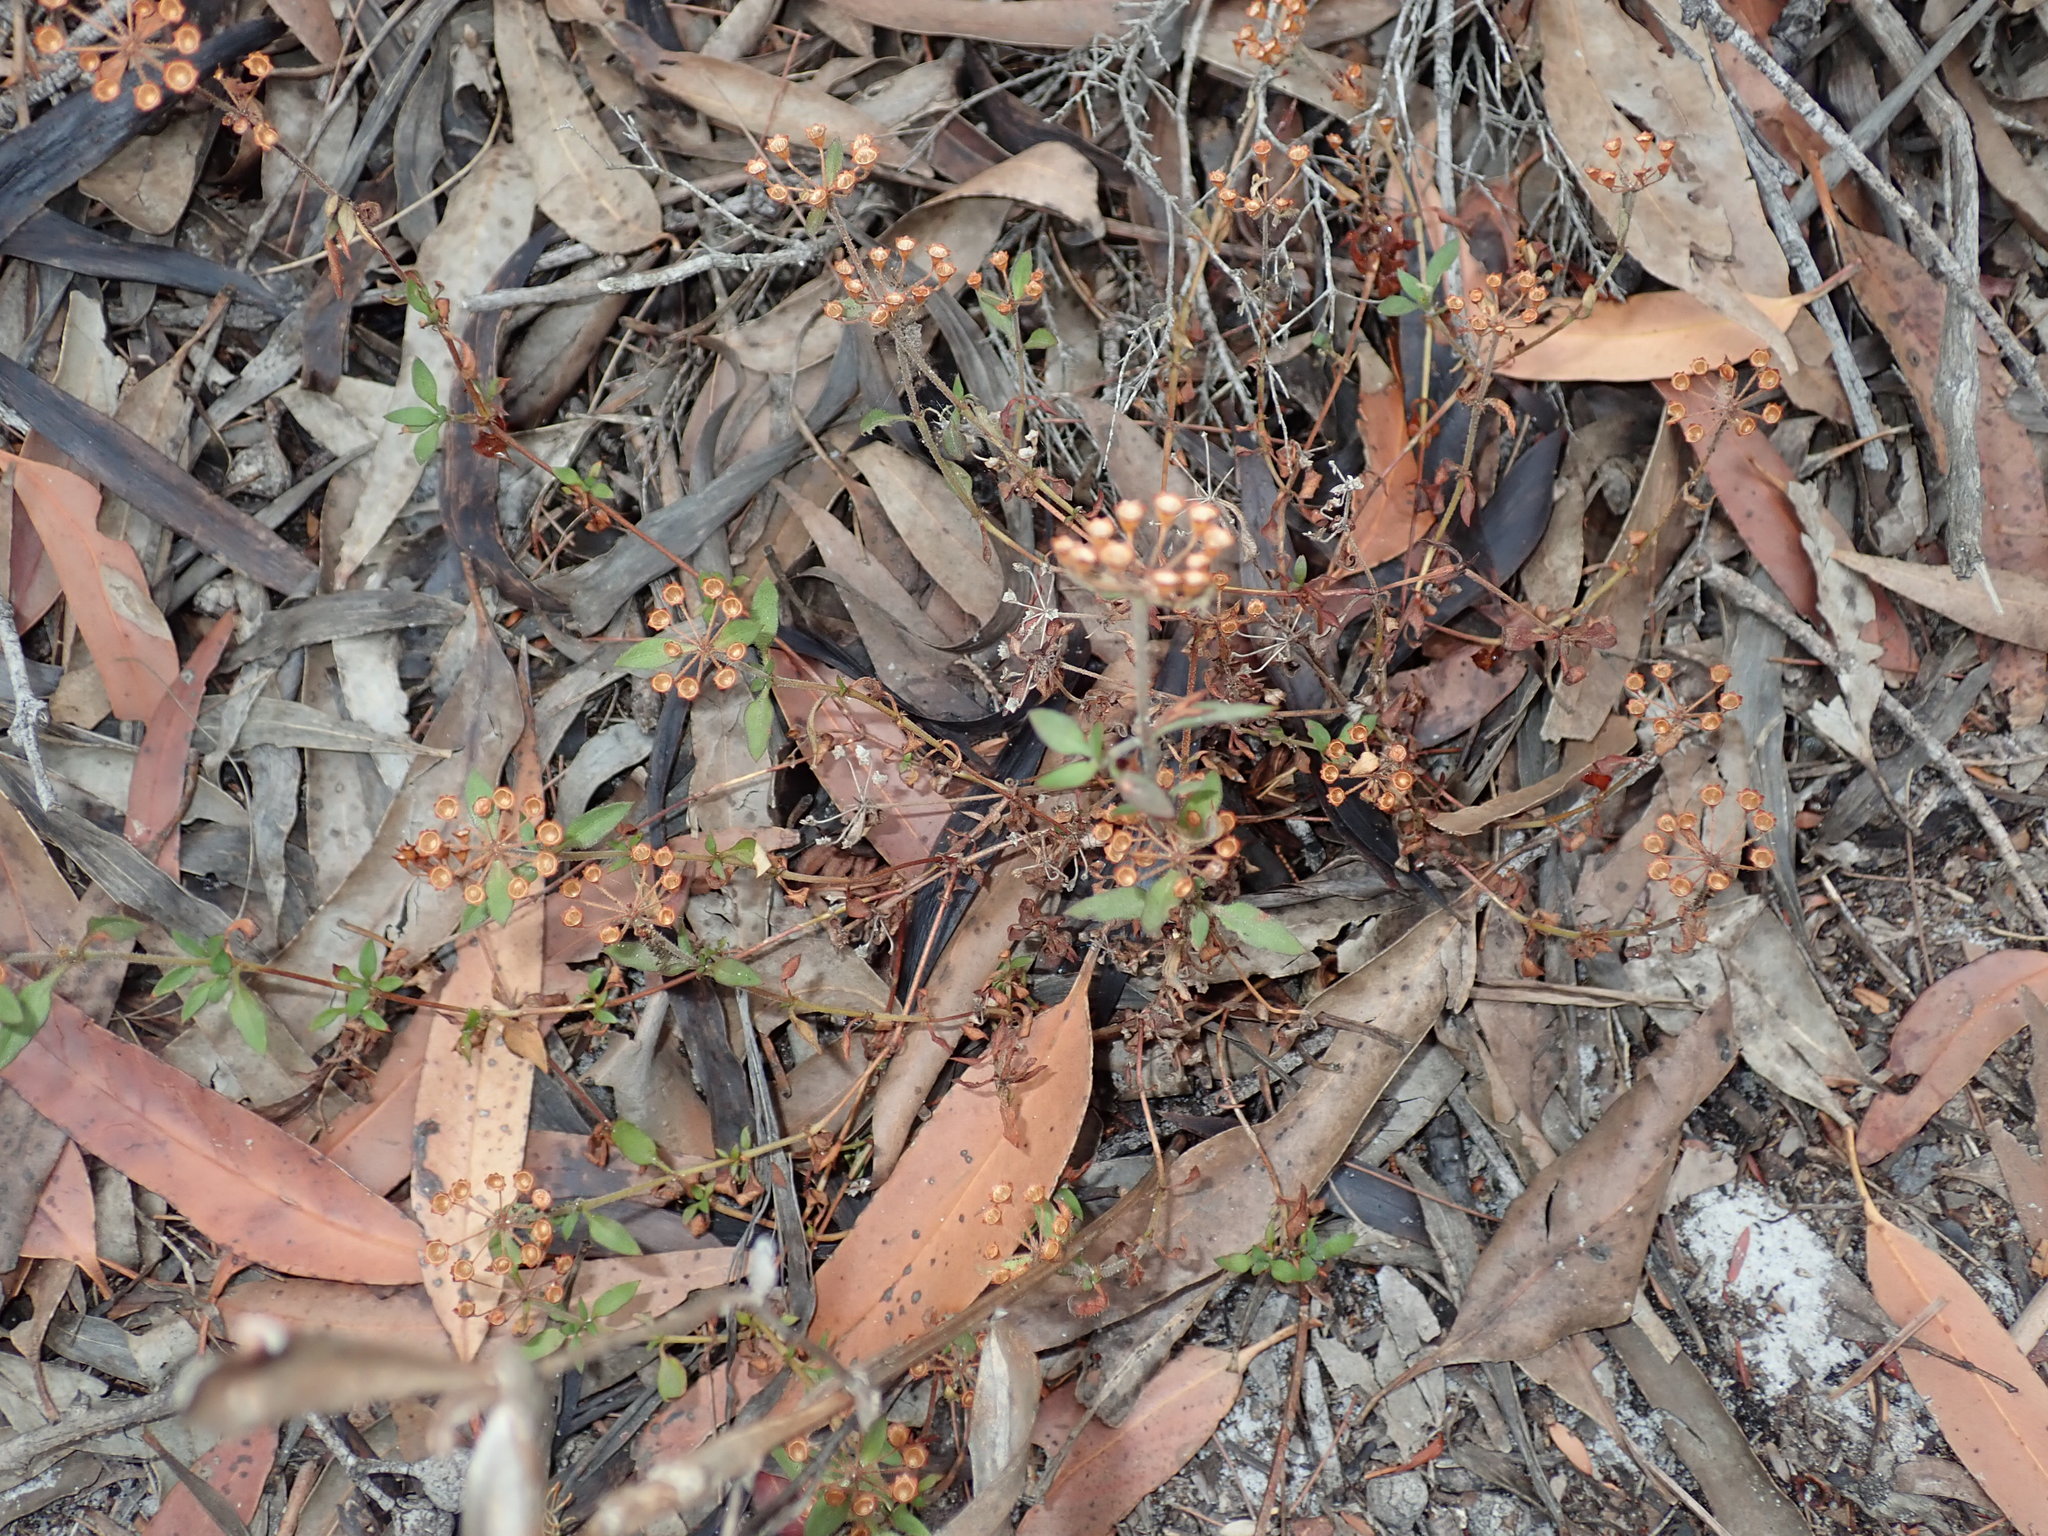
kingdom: Plantae
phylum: Tracheophyta
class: Magnoliopsida
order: Gentianales
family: Rubiaceae
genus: Pomax
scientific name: Pomax umbellata
